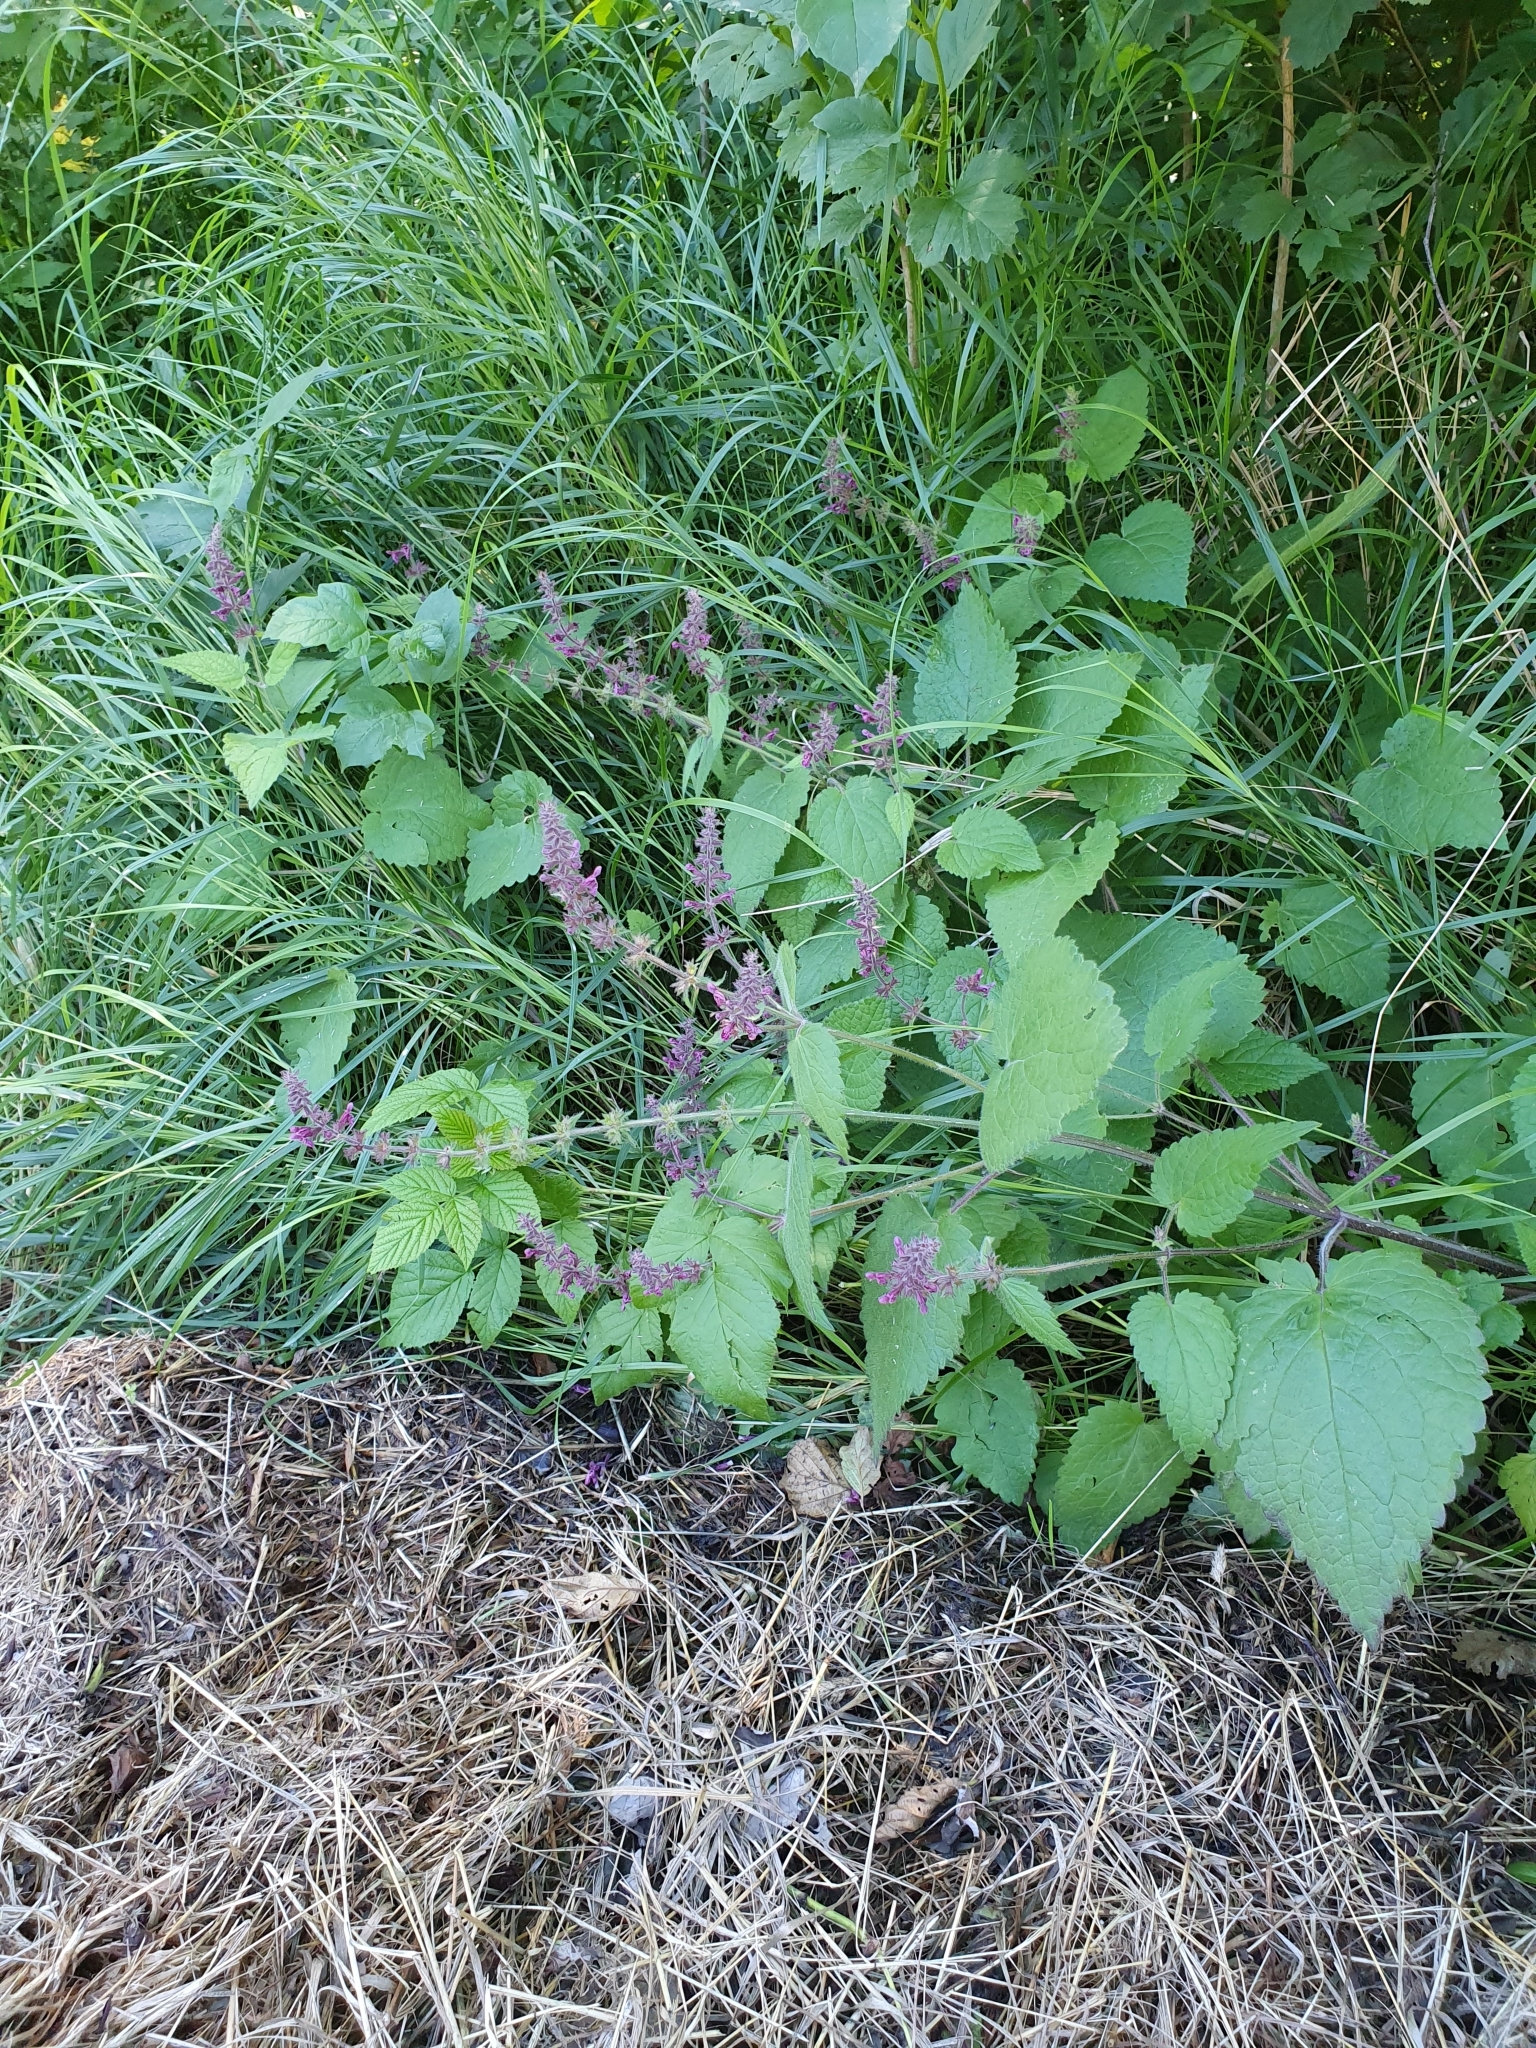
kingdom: Plantae
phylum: Tracheophyta
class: Magnoliopsida
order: Lamiales
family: Lamiaceae
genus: Stachys
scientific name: Stachys sylvatica
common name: Hedge woundwort
